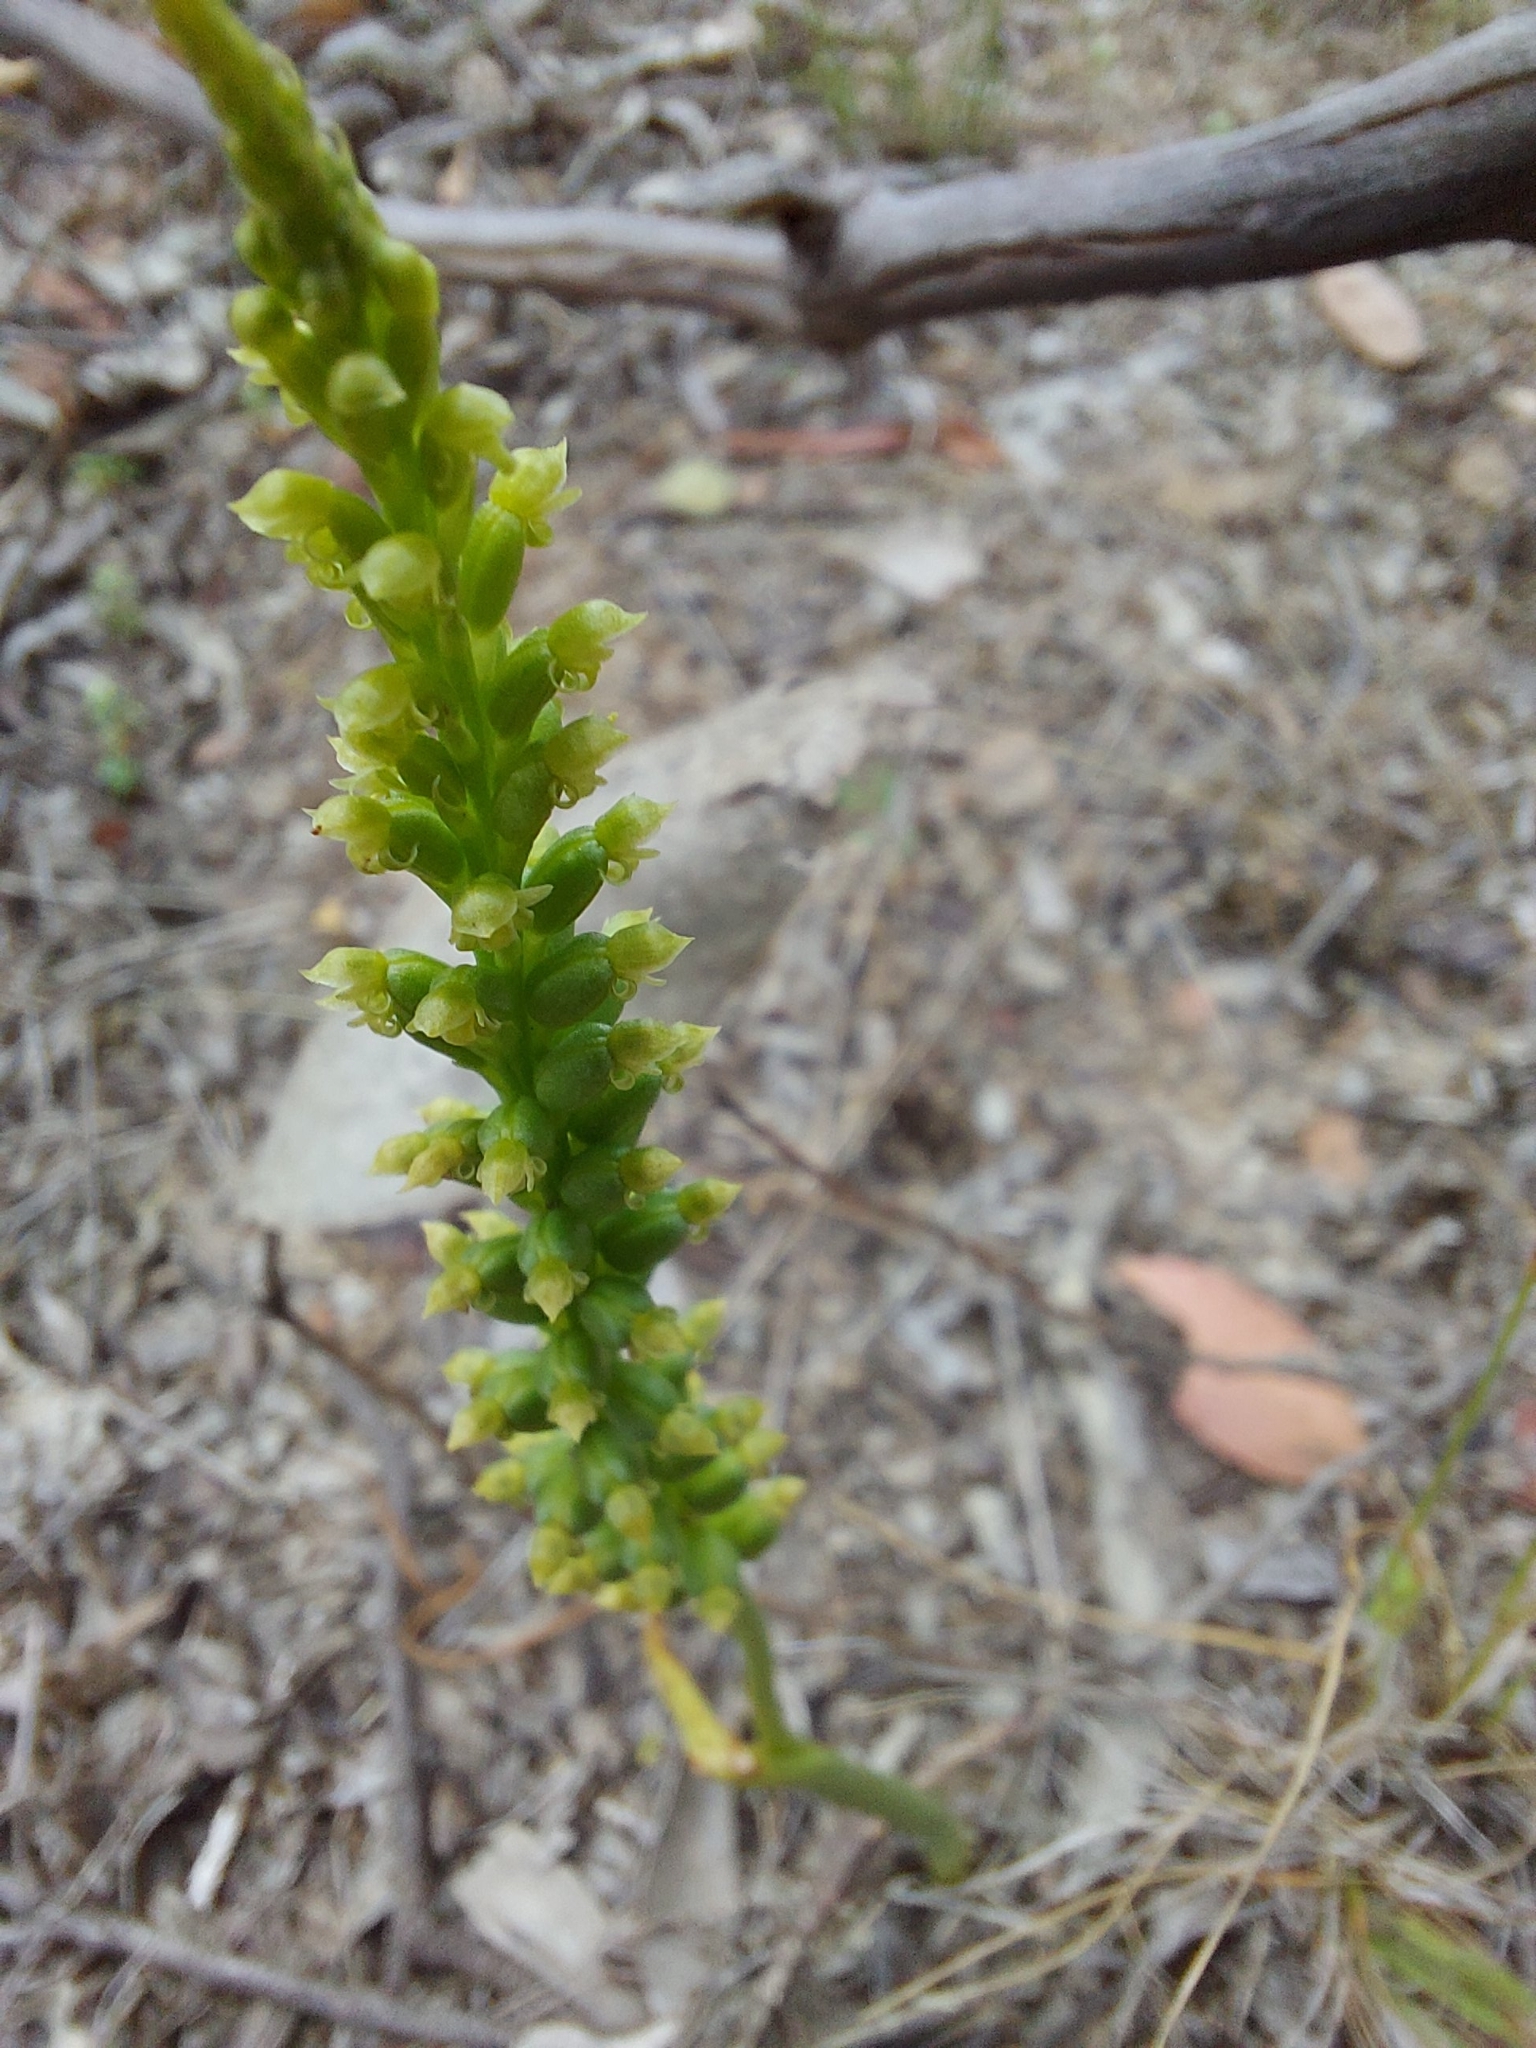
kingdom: Plantae
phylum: Tracheophyta
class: Liliopsida
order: Asparagales
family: Orchidaceae
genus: Microtis
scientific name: Microtis unifolia
